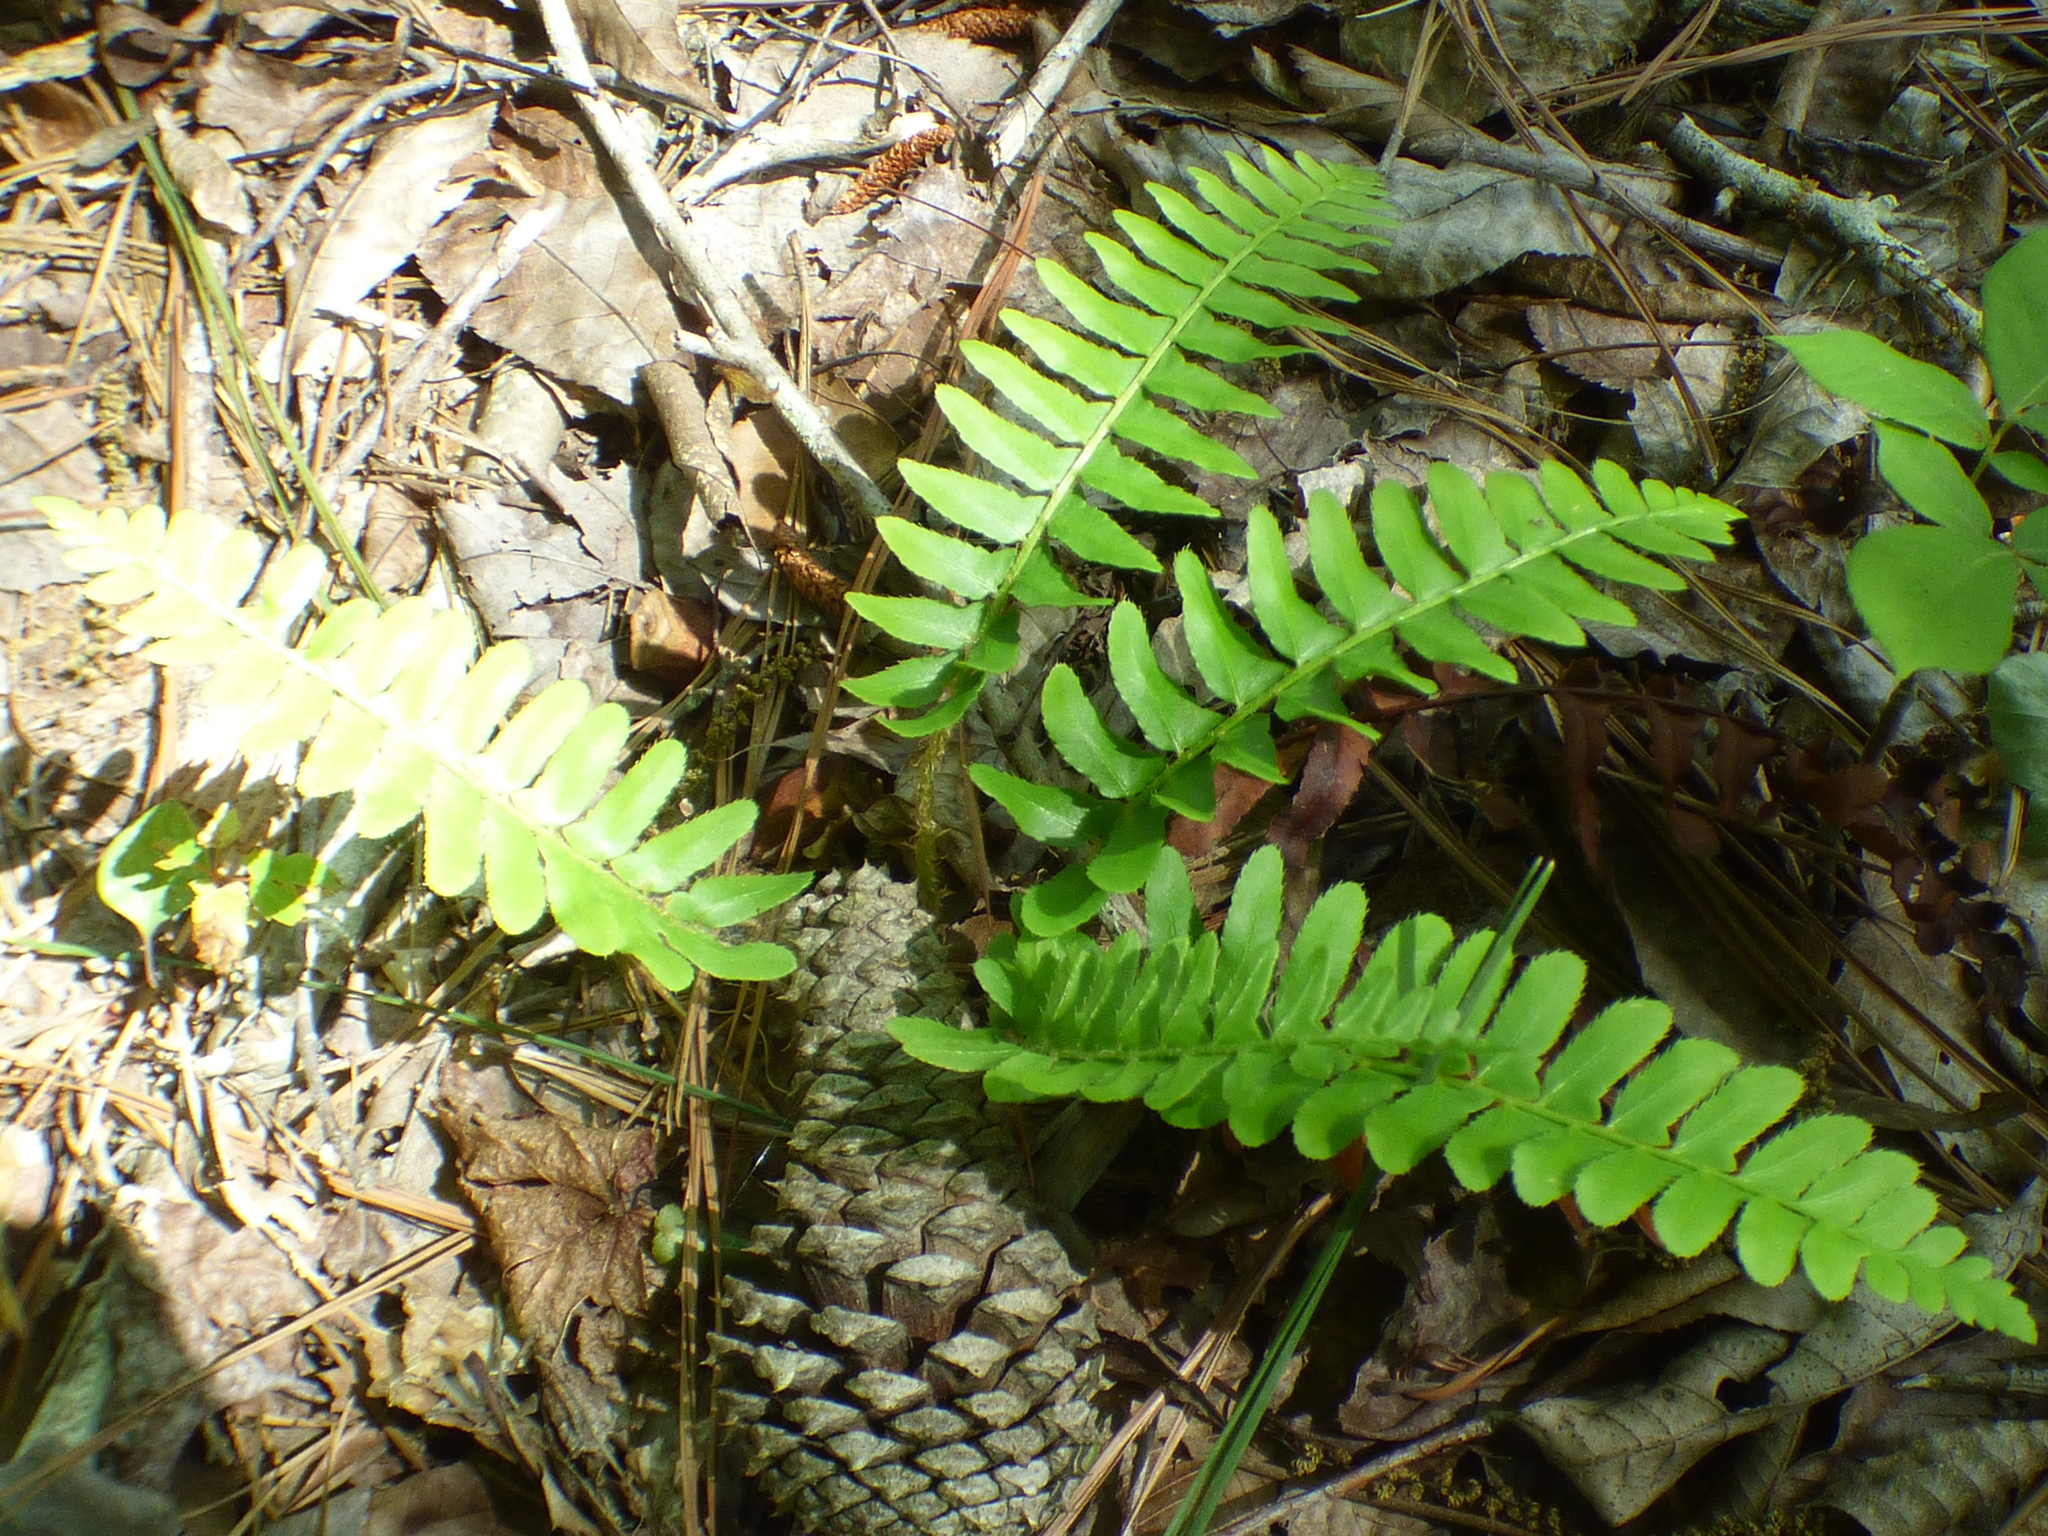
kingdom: Plantae
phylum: Tracheophyta
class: Polypodiopsida
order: Polypodiales
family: Dryopteridaceae
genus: Polystichum
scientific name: Polystichum acrostichoides
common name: Christmas fern
